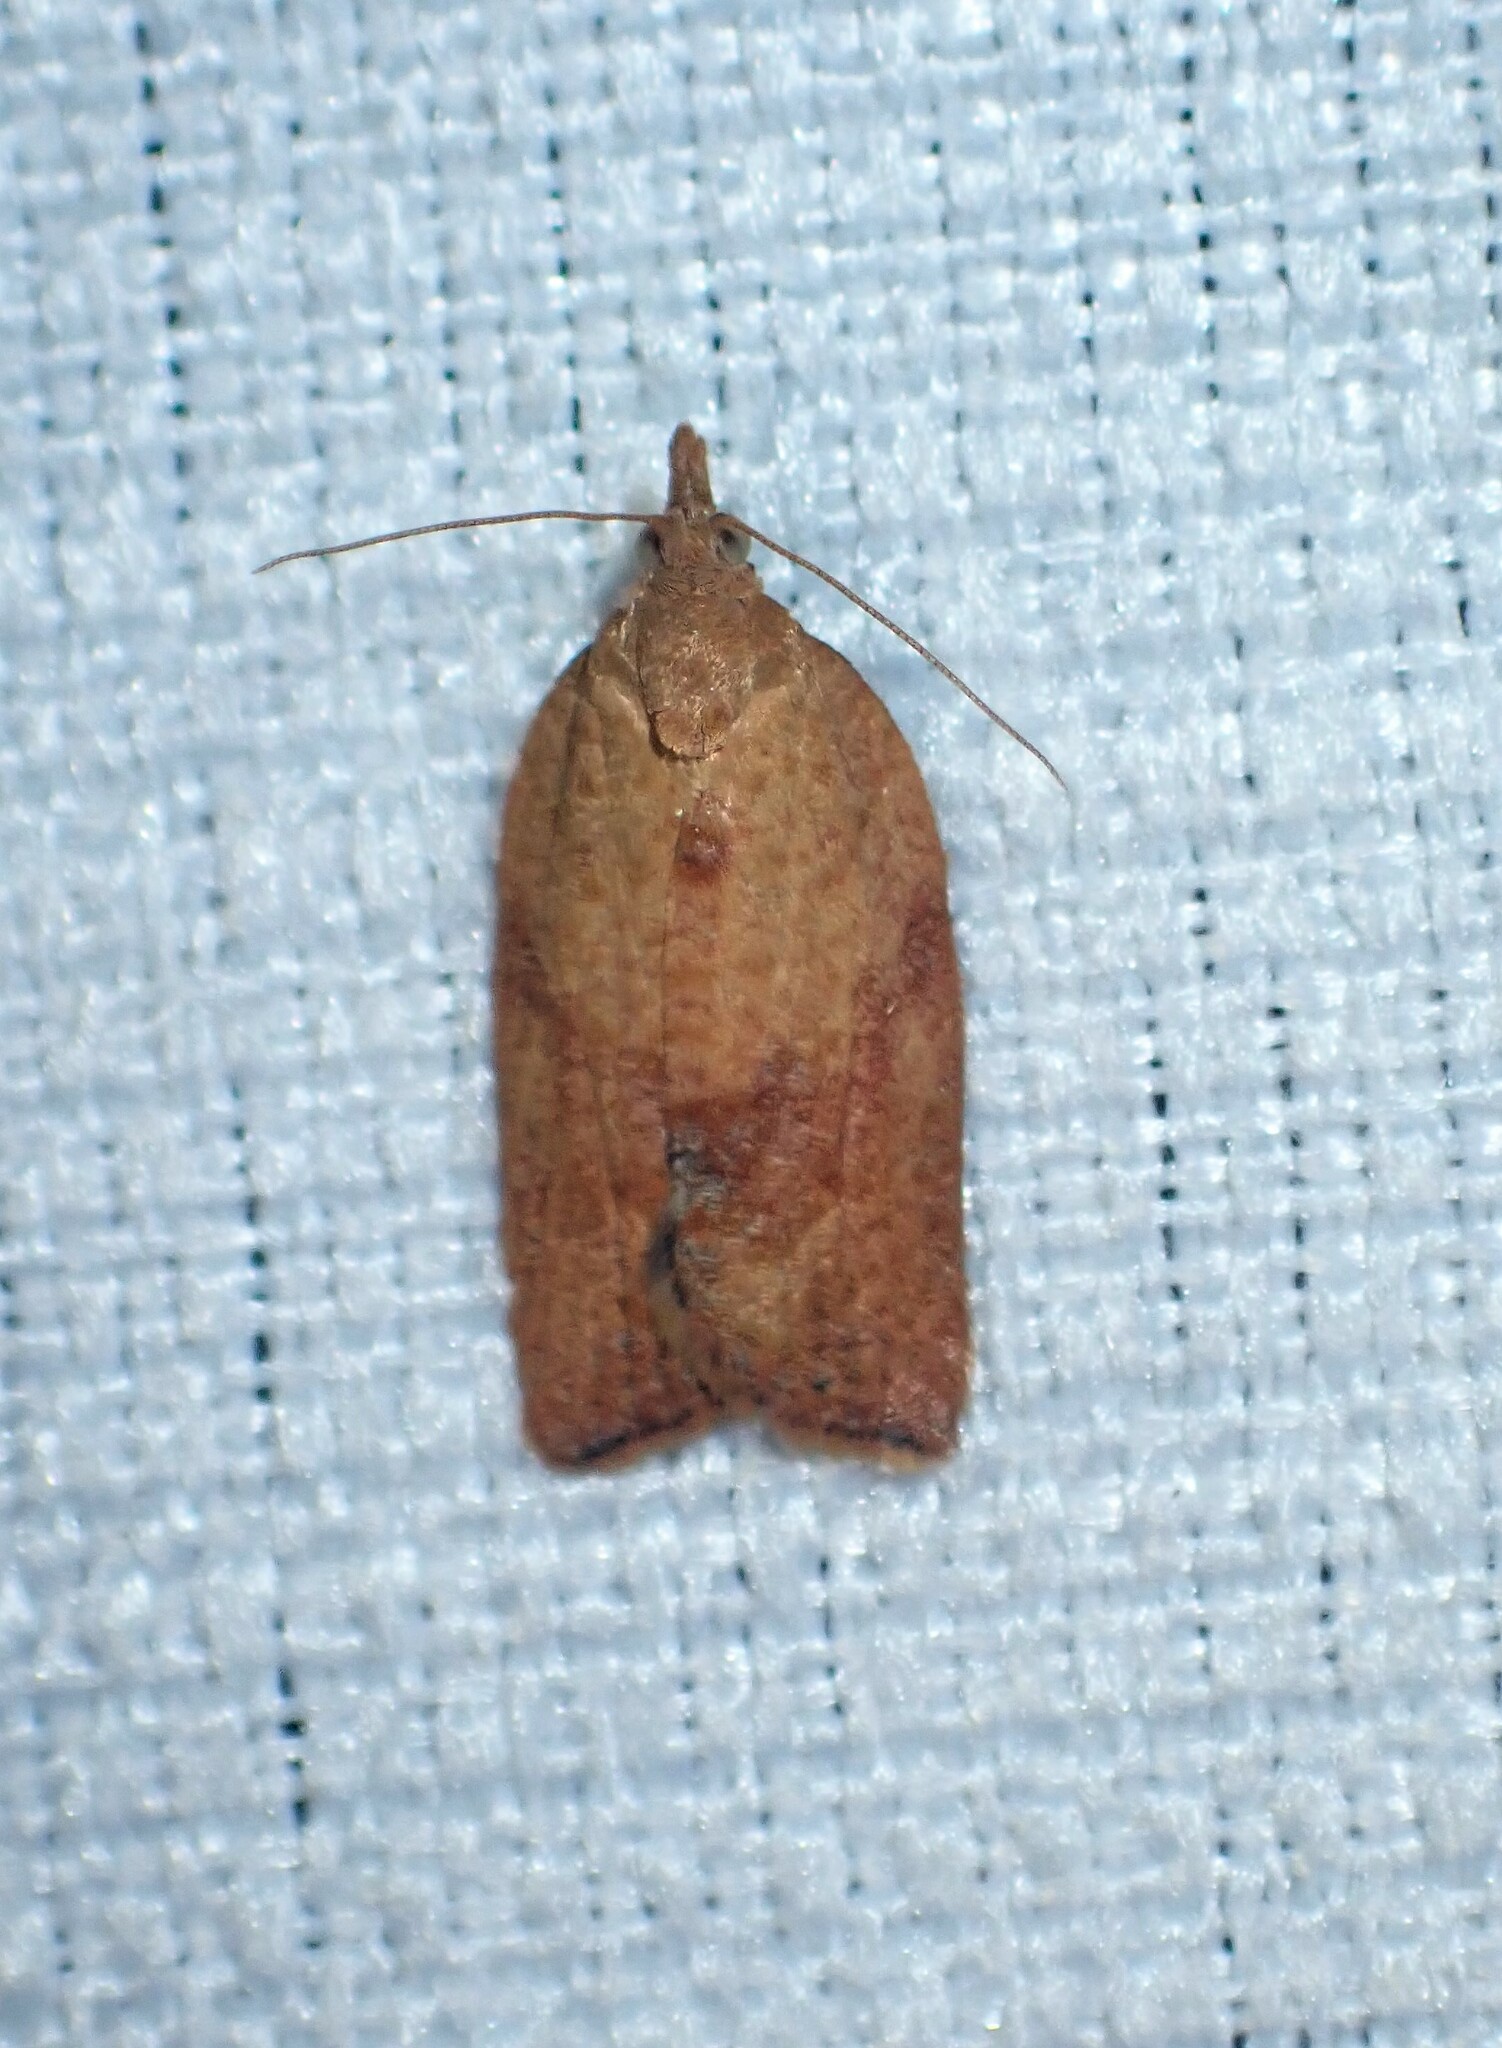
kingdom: Animalia
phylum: Arthropoda
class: Insecta
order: Lepidoptera
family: Tortricidae
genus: Epiphyas
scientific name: Epiphyas postvittana
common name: Light brown apple moth
